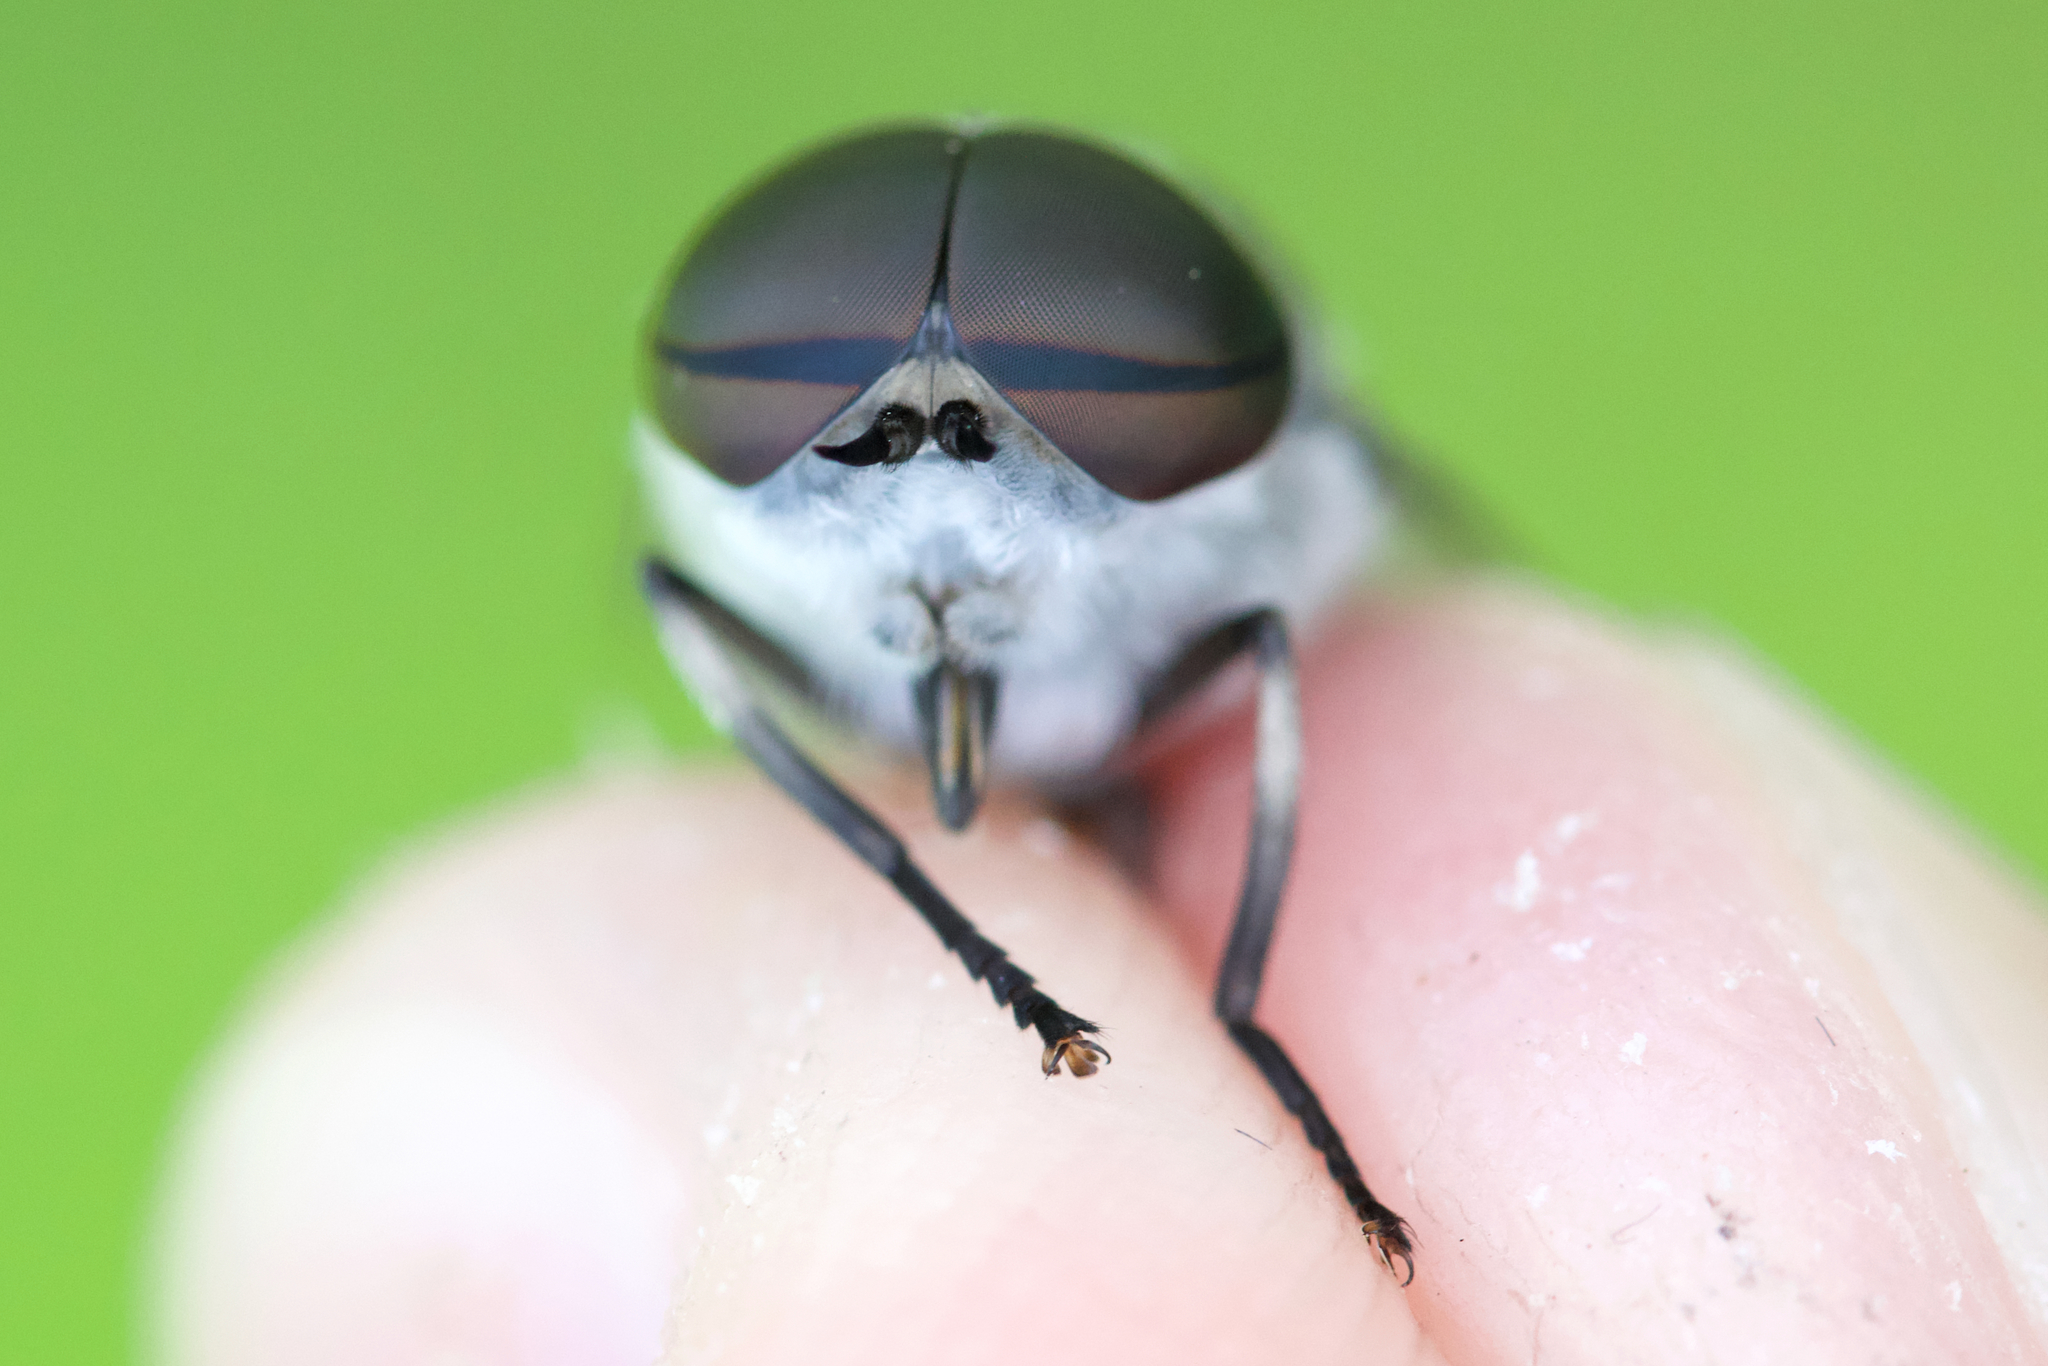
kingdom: Animalia
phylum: Arthropoda
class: Insecta
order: Diptera
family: Tabanidae
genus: Tabanus
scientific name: Tabanus fairchildi
